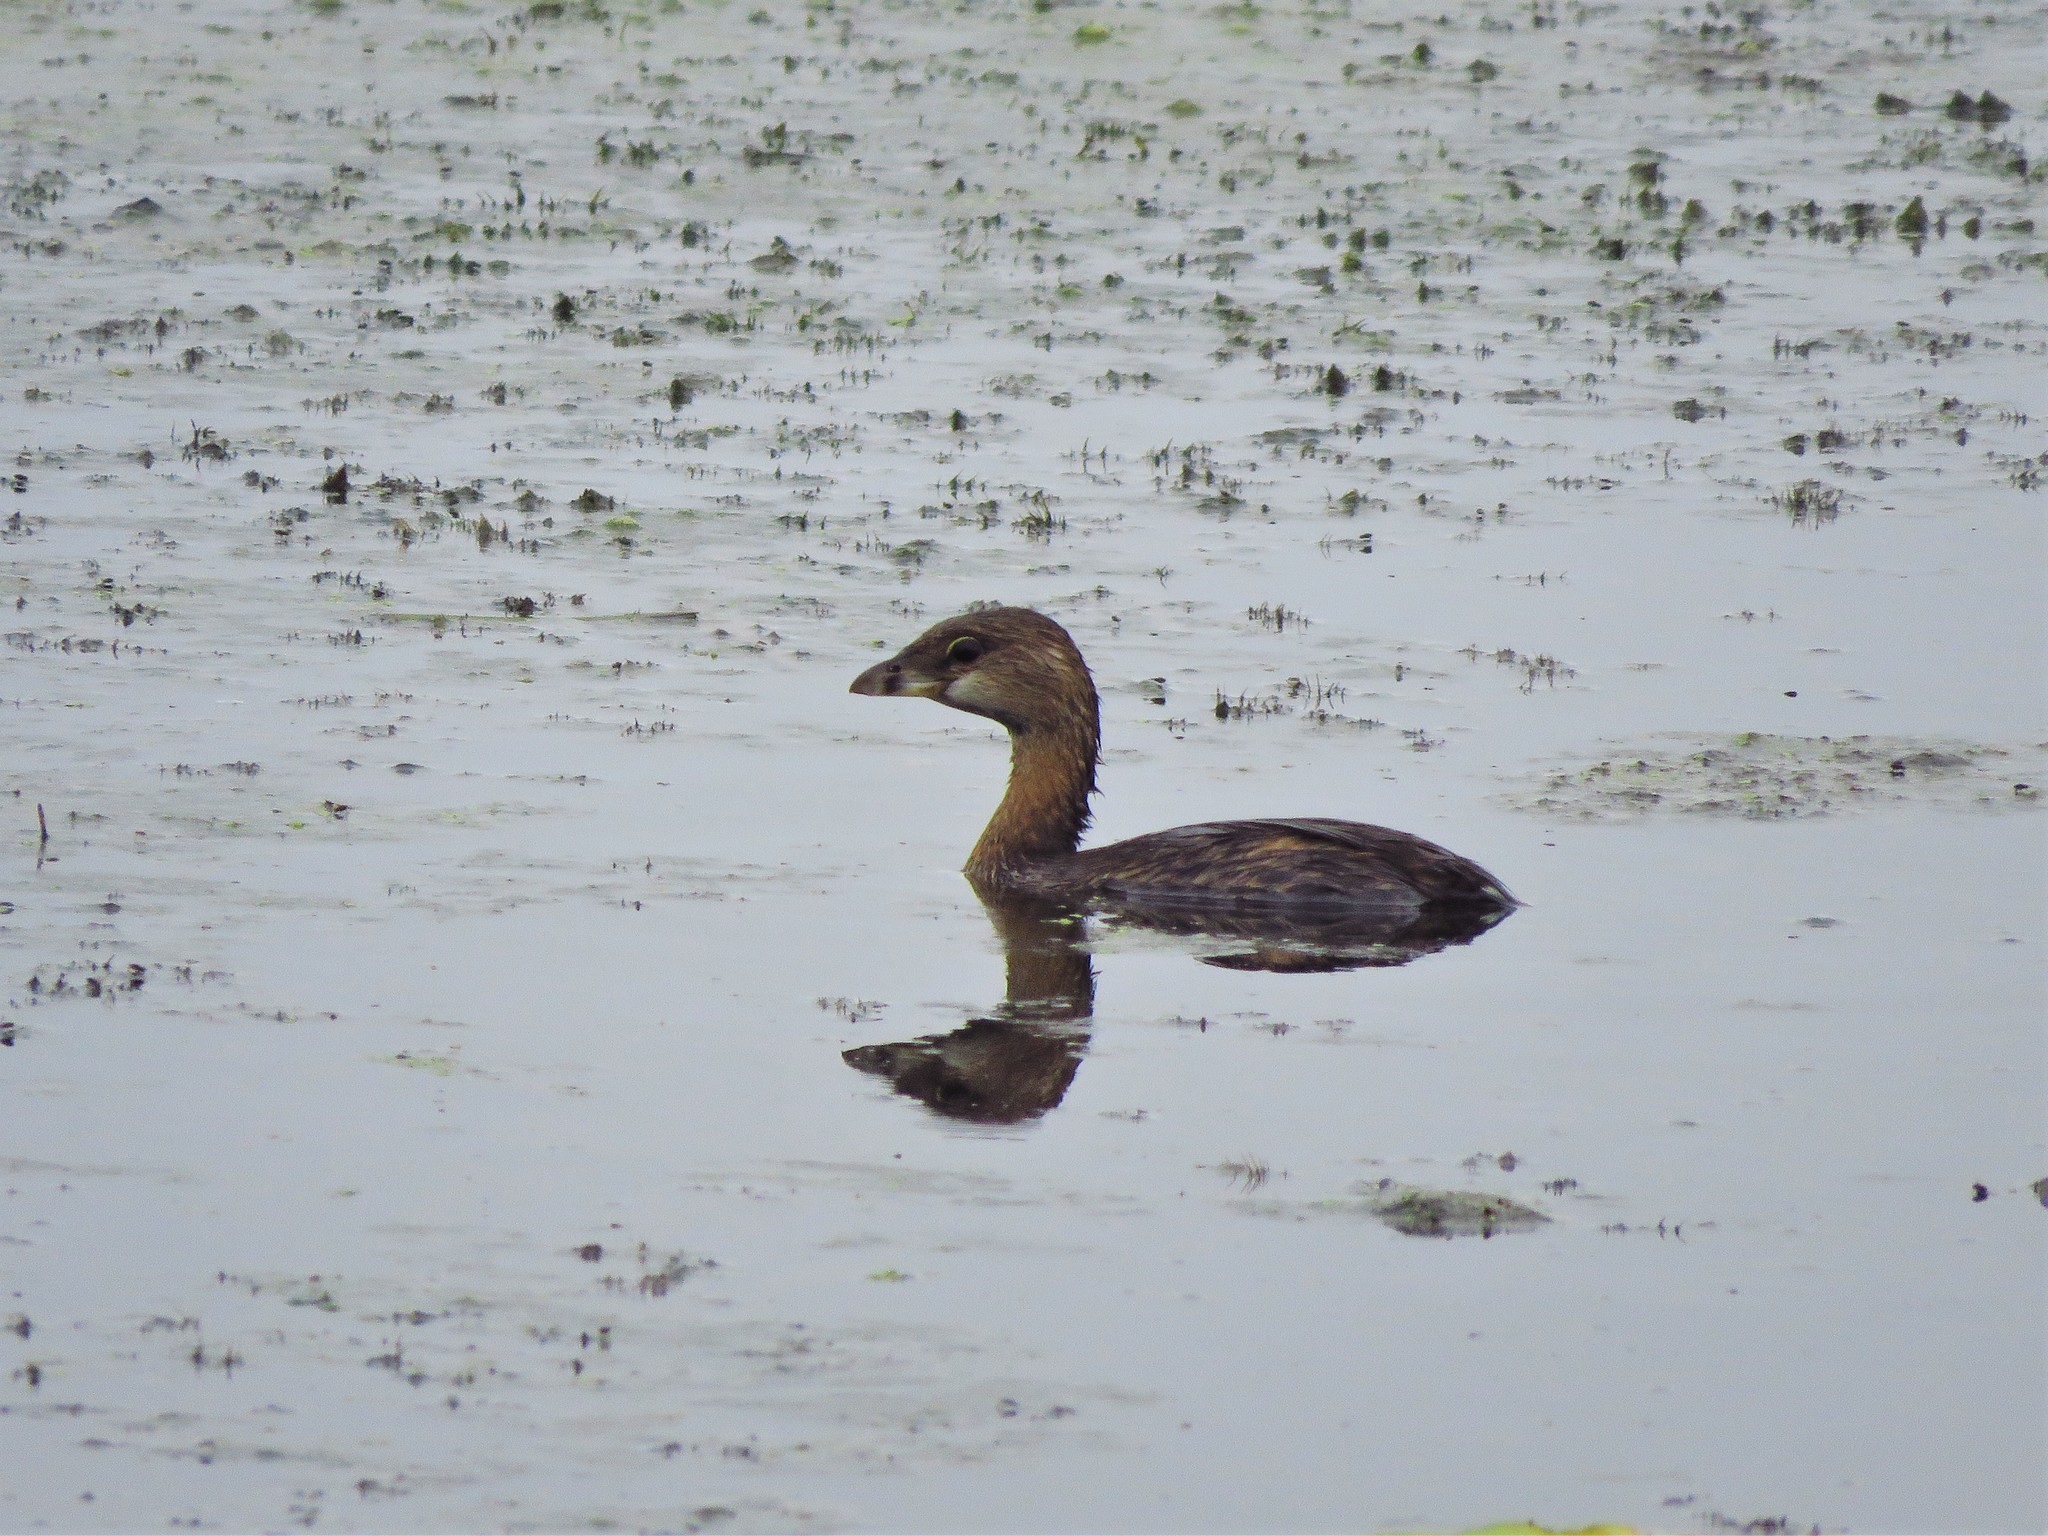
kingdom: Animalia
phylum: Chordata
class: Aves
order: Podicipediformes
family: Podicipedidae
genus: Podilymbus
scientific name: Podilymbus podiceps
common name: Pied-billed grebe
